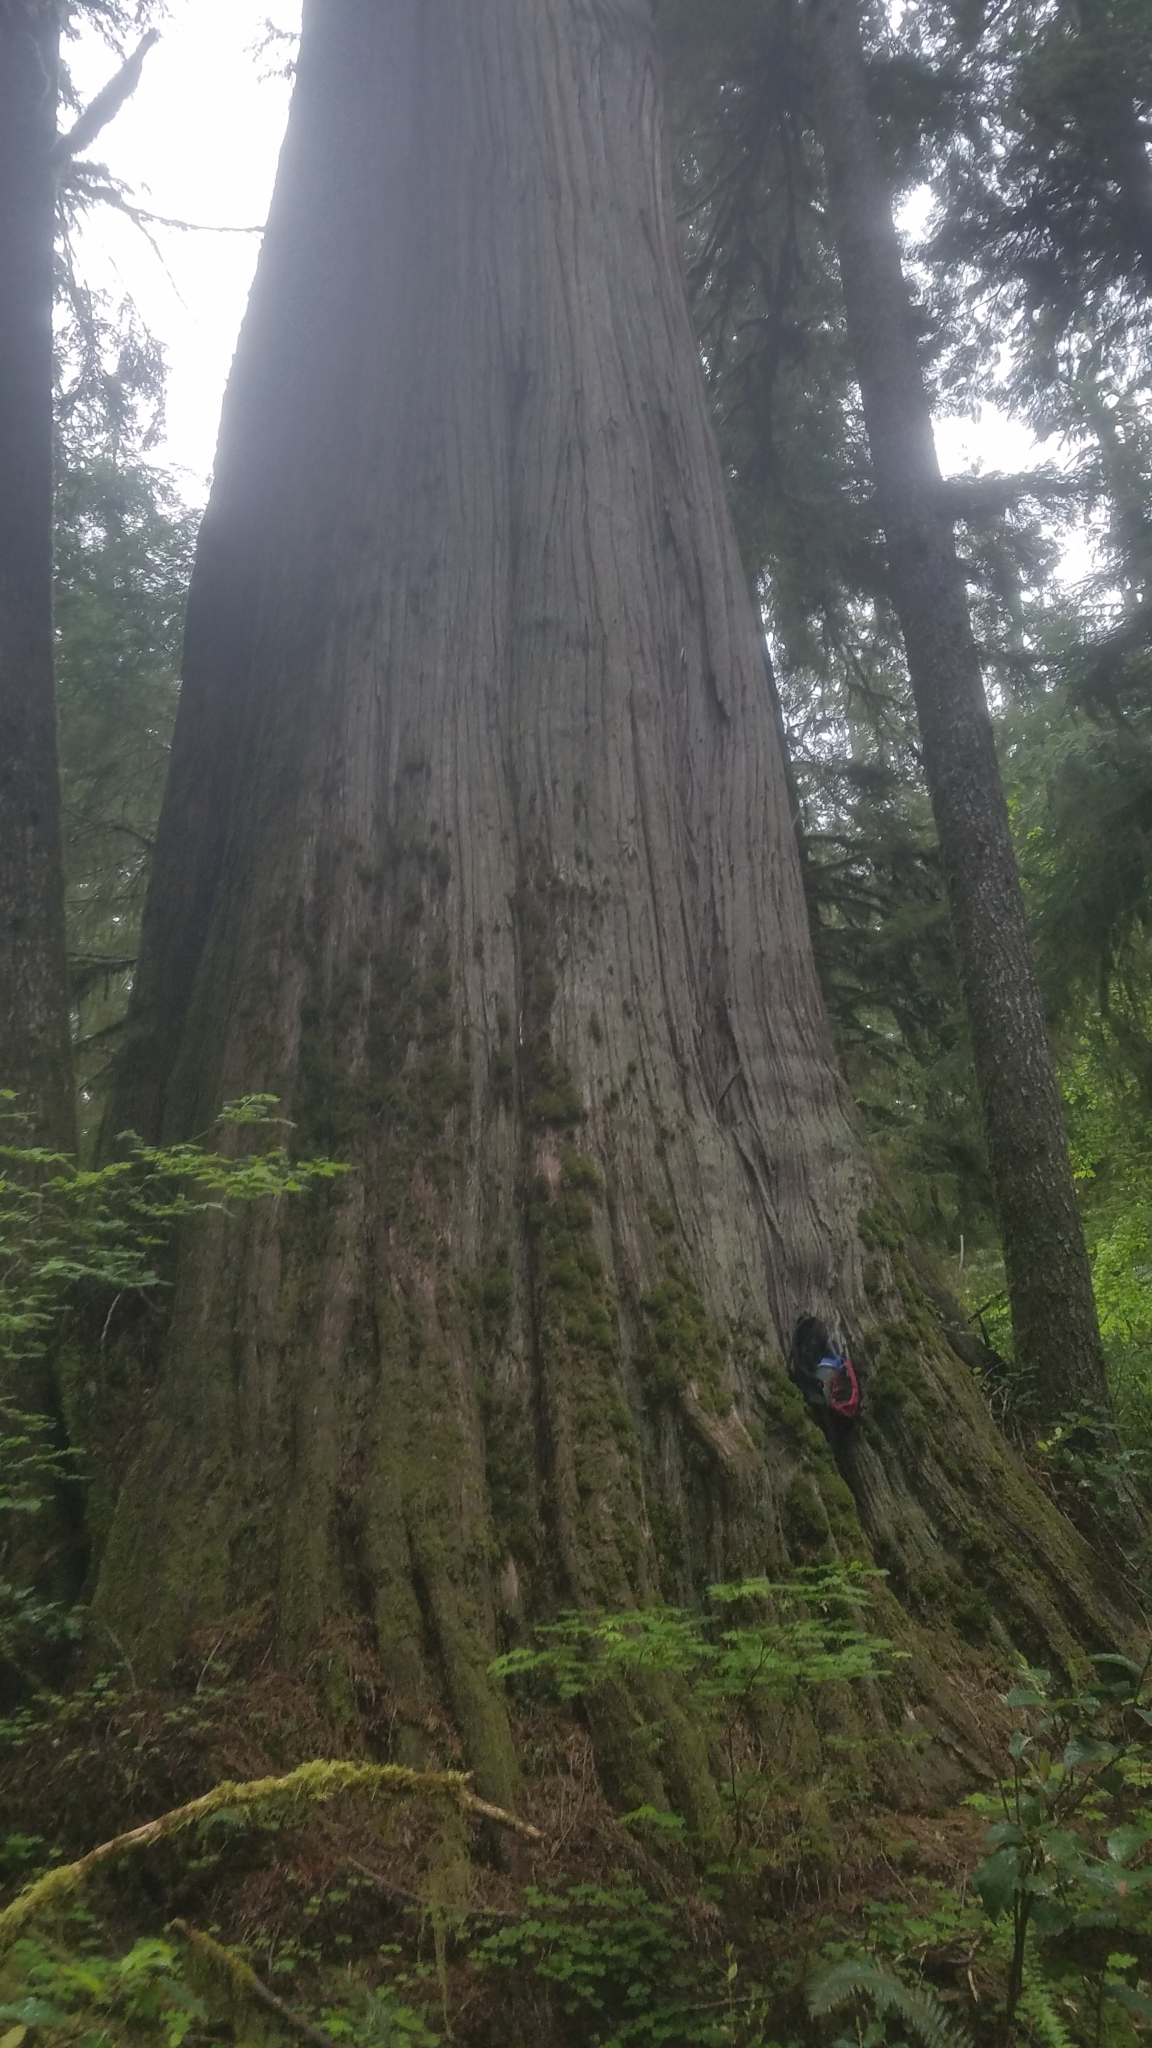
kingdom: Plantae
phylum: Tracheophyta
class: Pinopsida
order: Pinales
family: Cupressaceae
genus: Thuja
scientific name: Thuja plicata
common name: Western red-cedar
